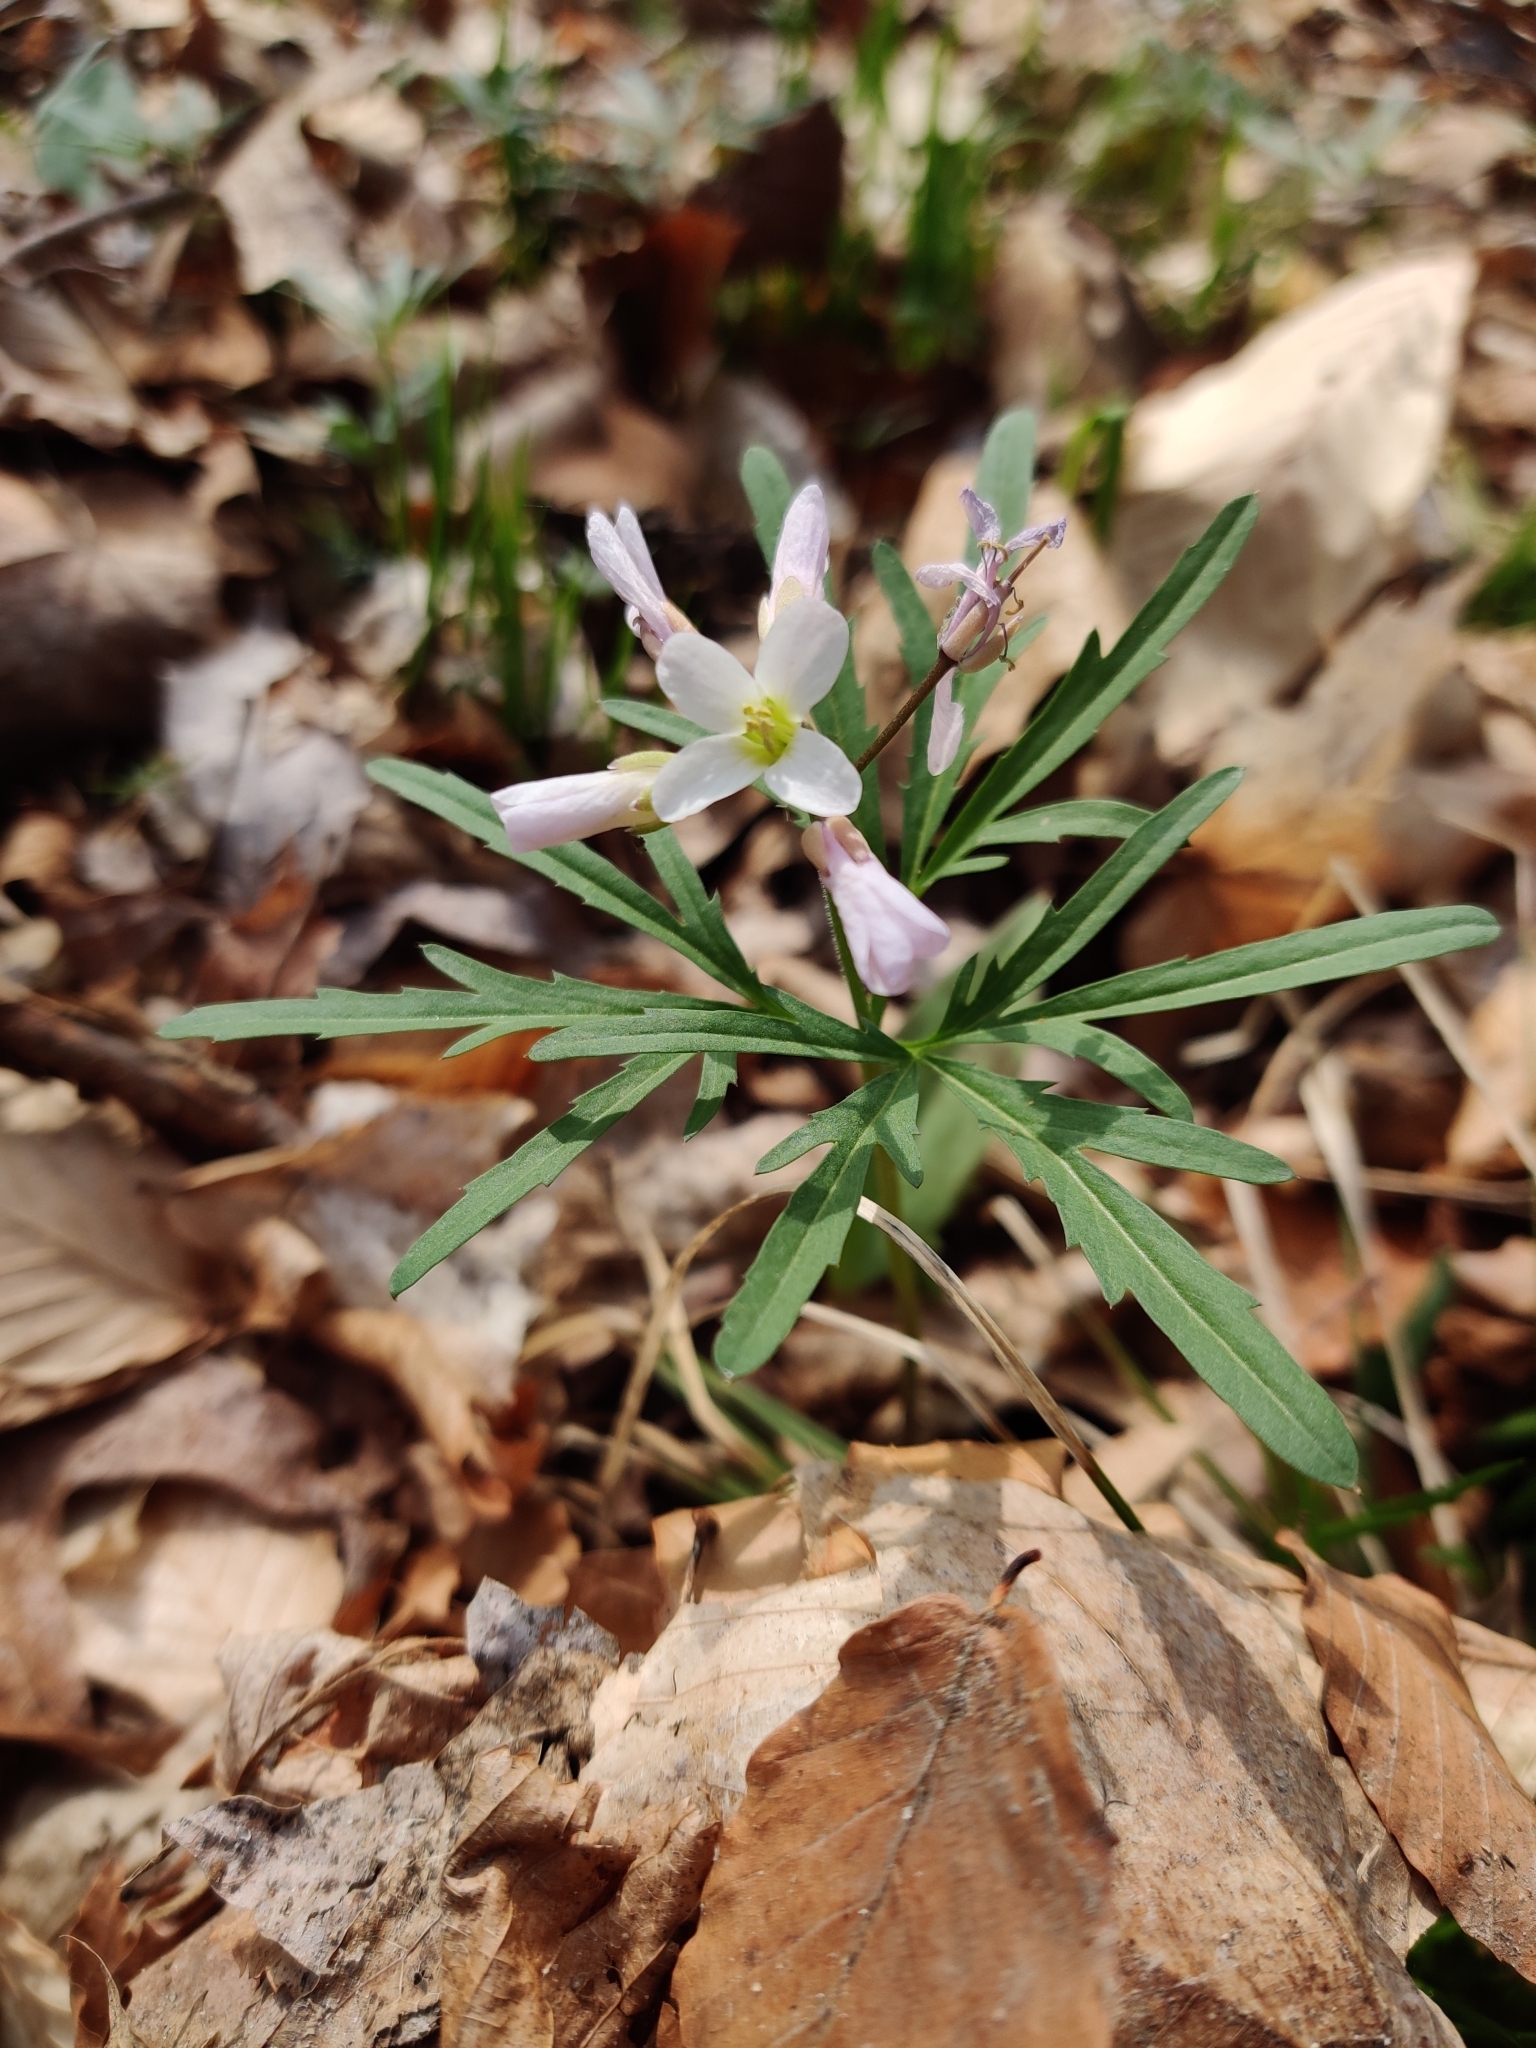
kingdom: Plantae
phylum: Tracheophyta
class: Magnoliopsida
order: Brassicales
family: Brassicaceae
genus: Cardamine
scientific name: Cardamine concatenata
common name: Cut-leaf toothcup
